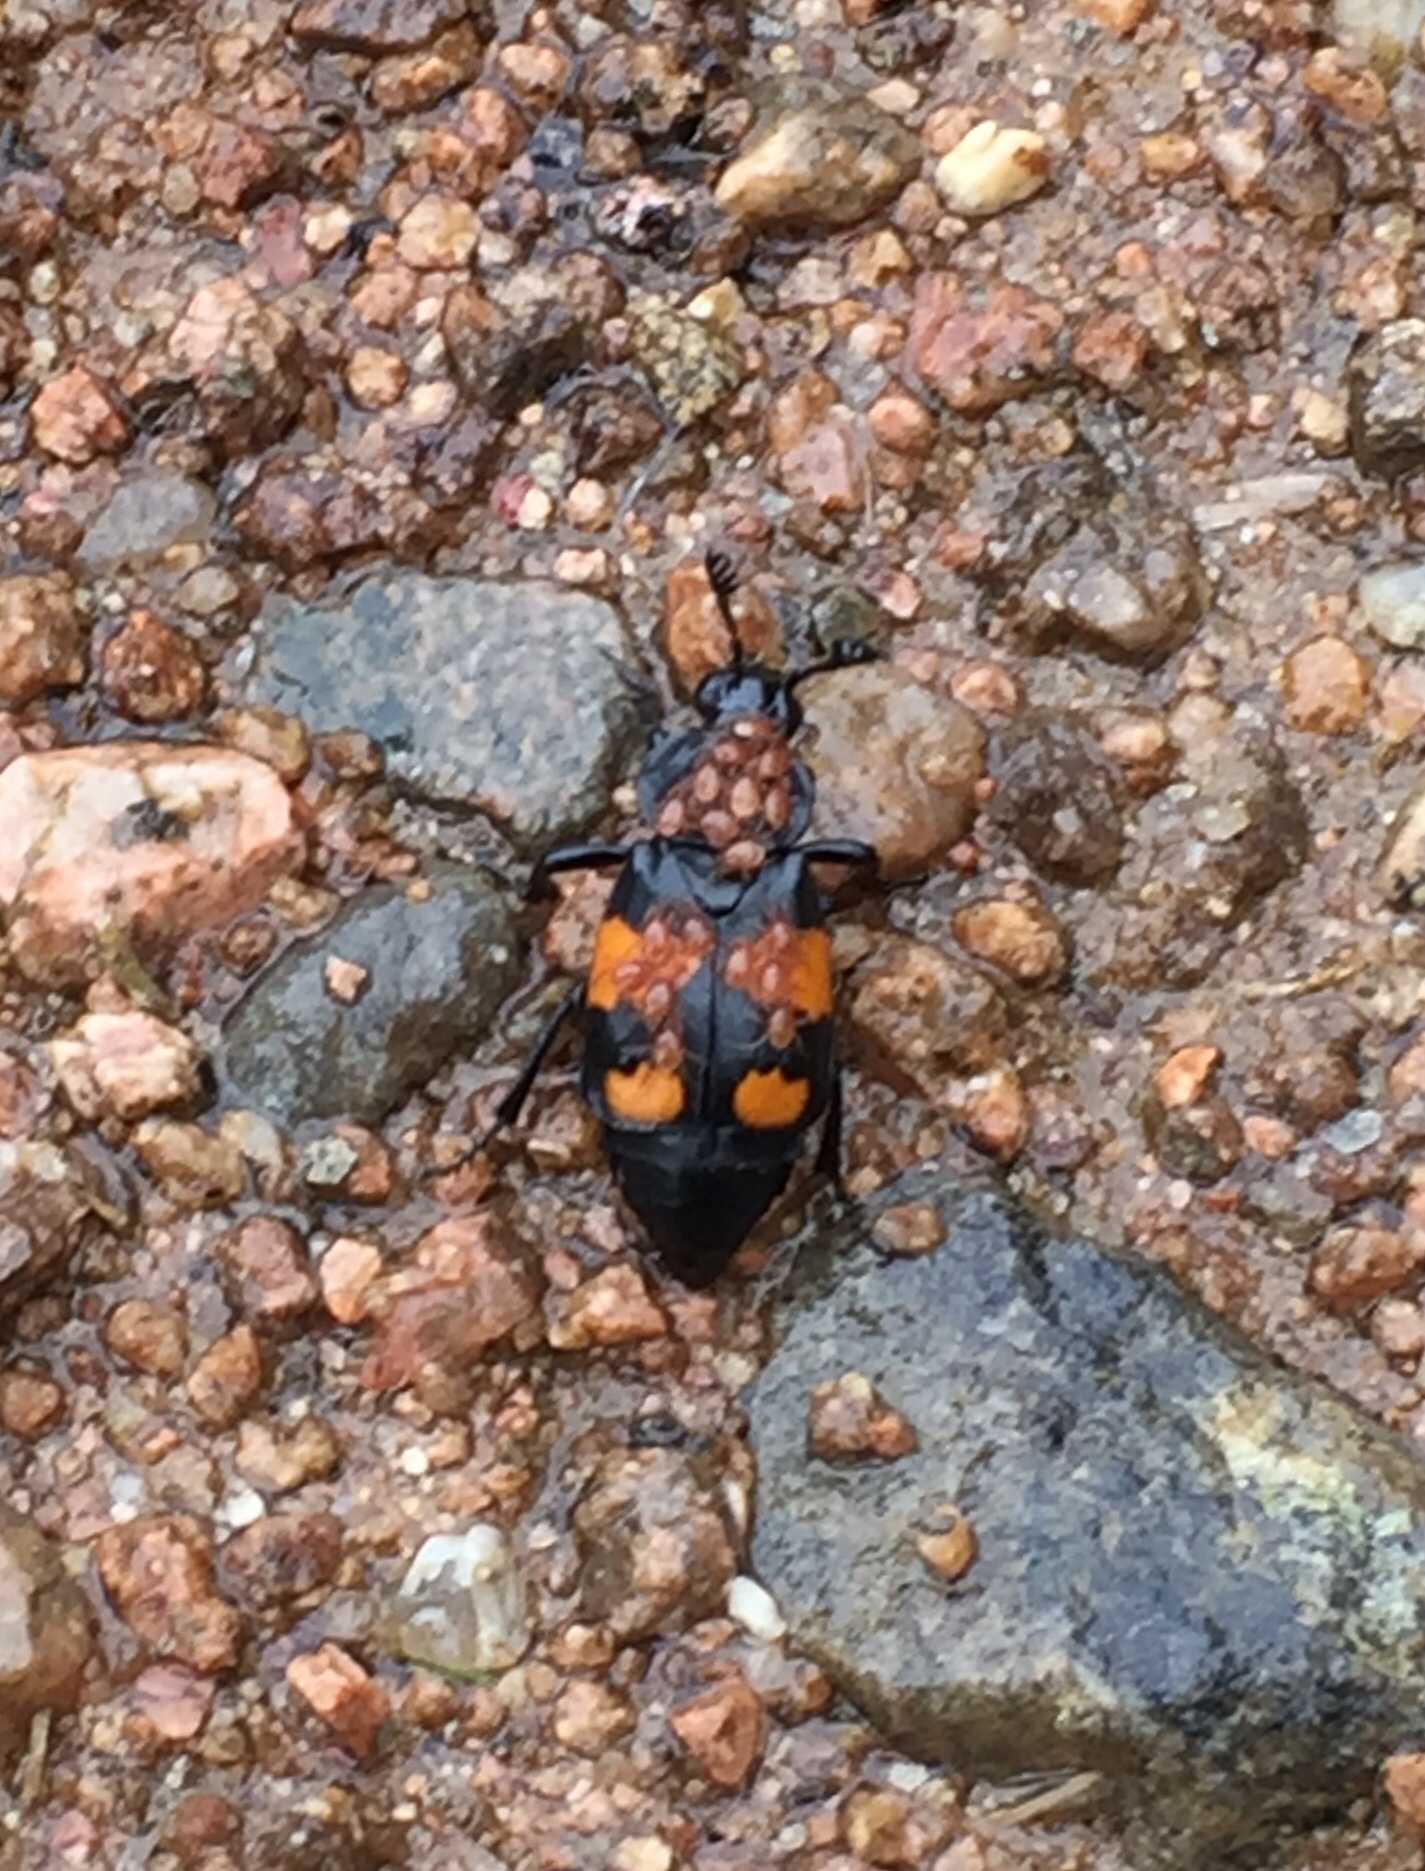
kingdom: Animalia
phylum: Arthropoda
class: Insecta
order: Coleoptera
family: Staphylinidae
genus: Nicrophorus
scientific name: Nicrophorus vespilloides
